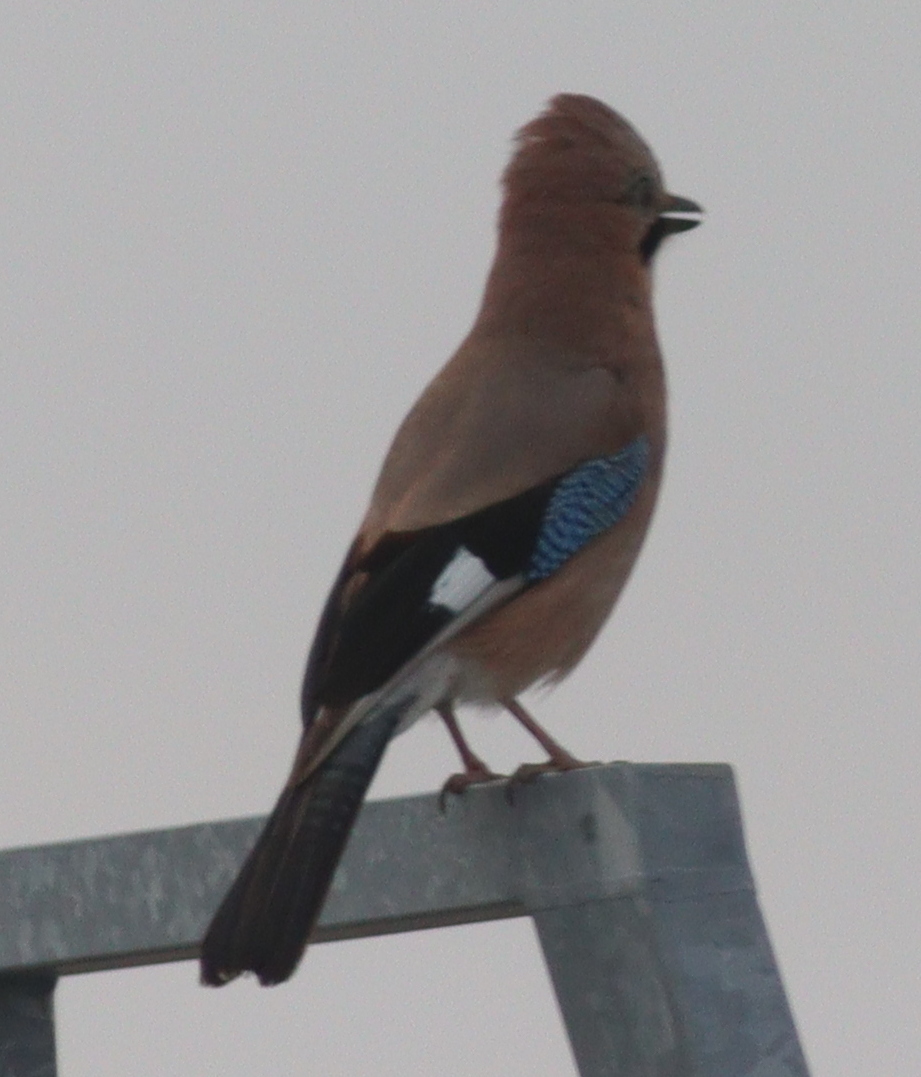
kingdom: Animalia
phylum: Chordata
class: Aves
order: Passeriformes
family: Corvidae
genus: Garrulus
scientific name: Garrulus glandarius
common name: Eurasian jay
